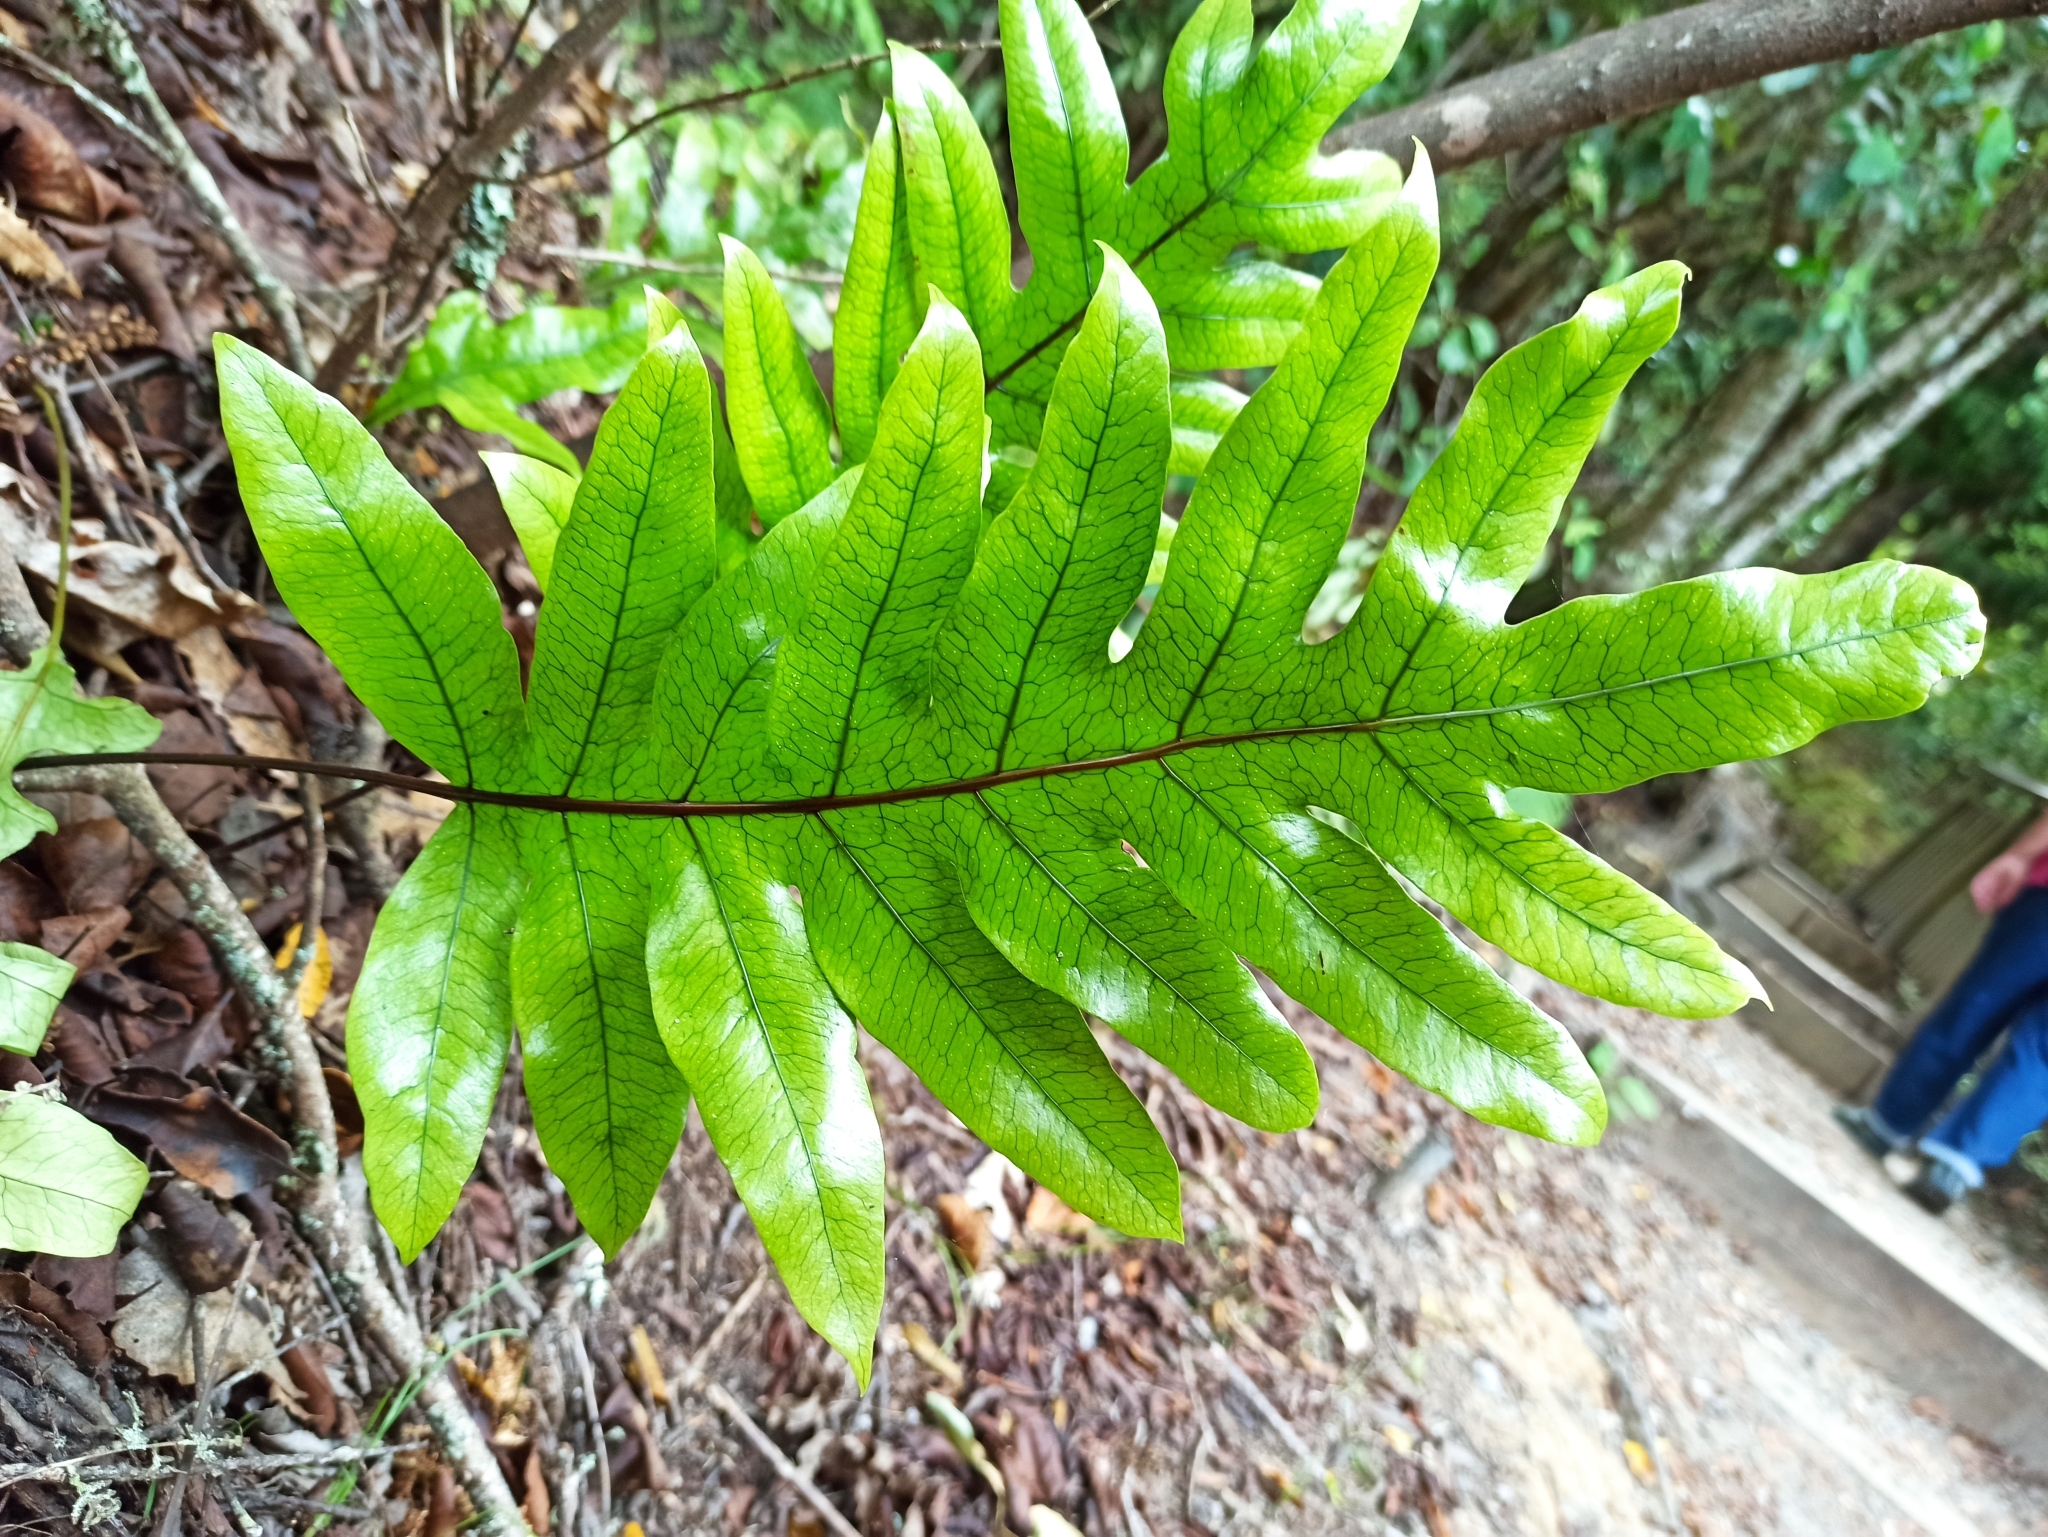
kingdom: Plantae
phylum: Tracheophyta
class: Polypodiopsida
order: Polypodiales
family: Polypodiaceae
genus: Lecanopteris
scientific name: Lecanopteris pustulata
